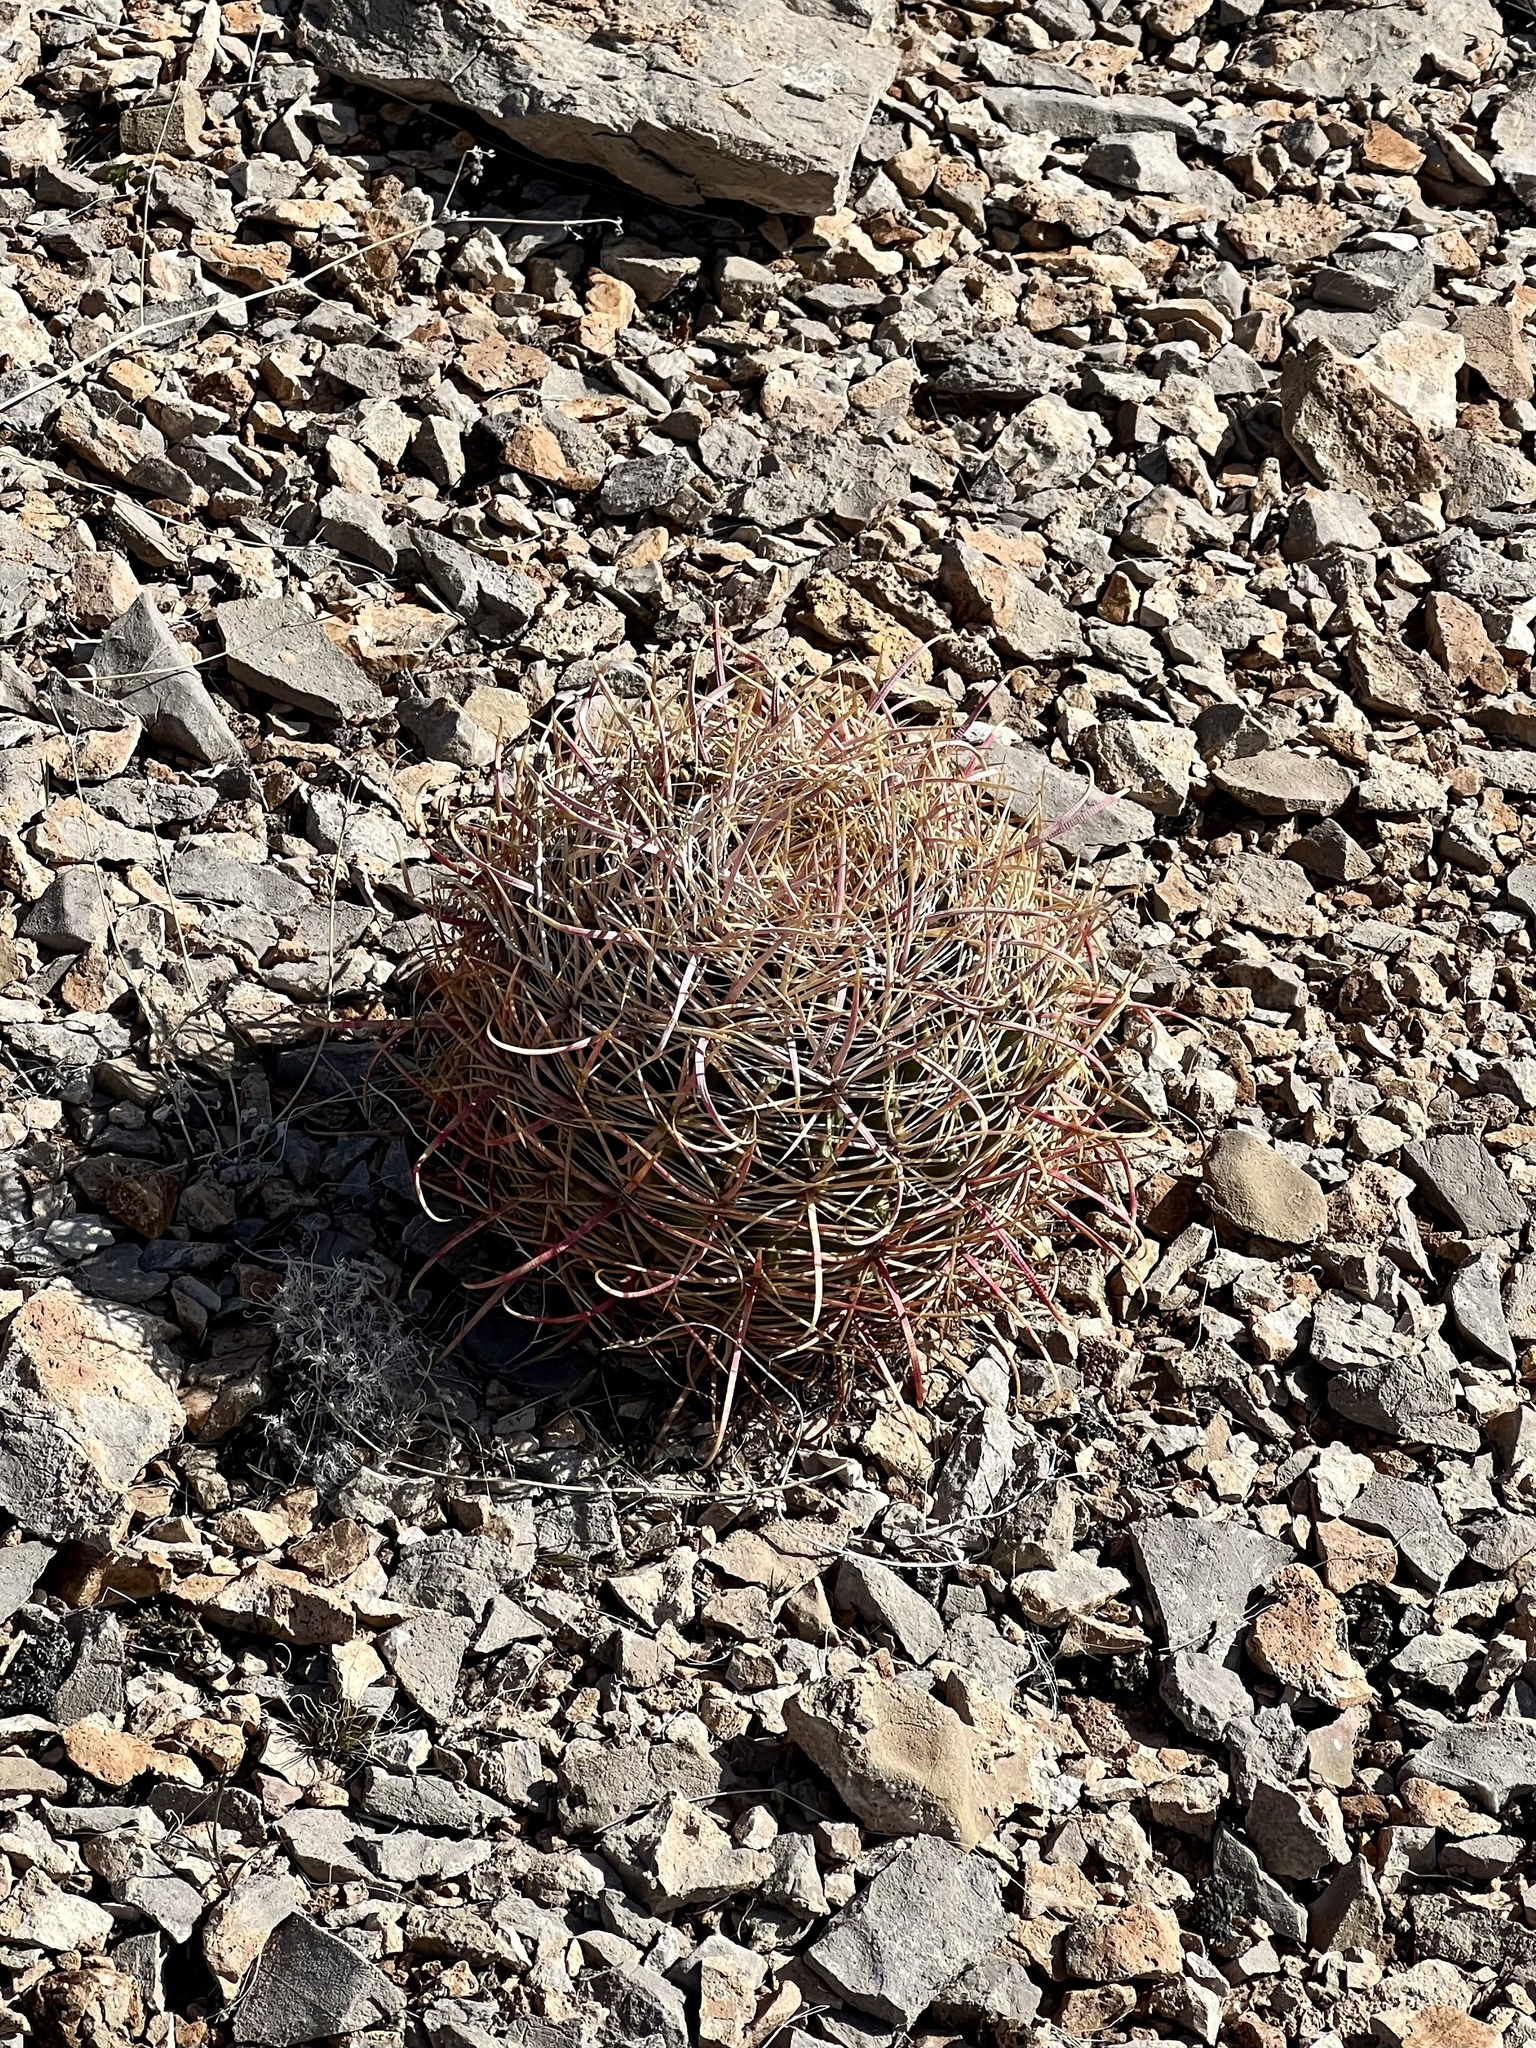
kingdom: Plantae
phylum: Tracheophyta
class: Magnoliopsida
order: Caryophyllales
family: Cactaceae
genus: Ferocactus
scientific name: Ferocactus cylindraceus
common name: California barrel cactus
